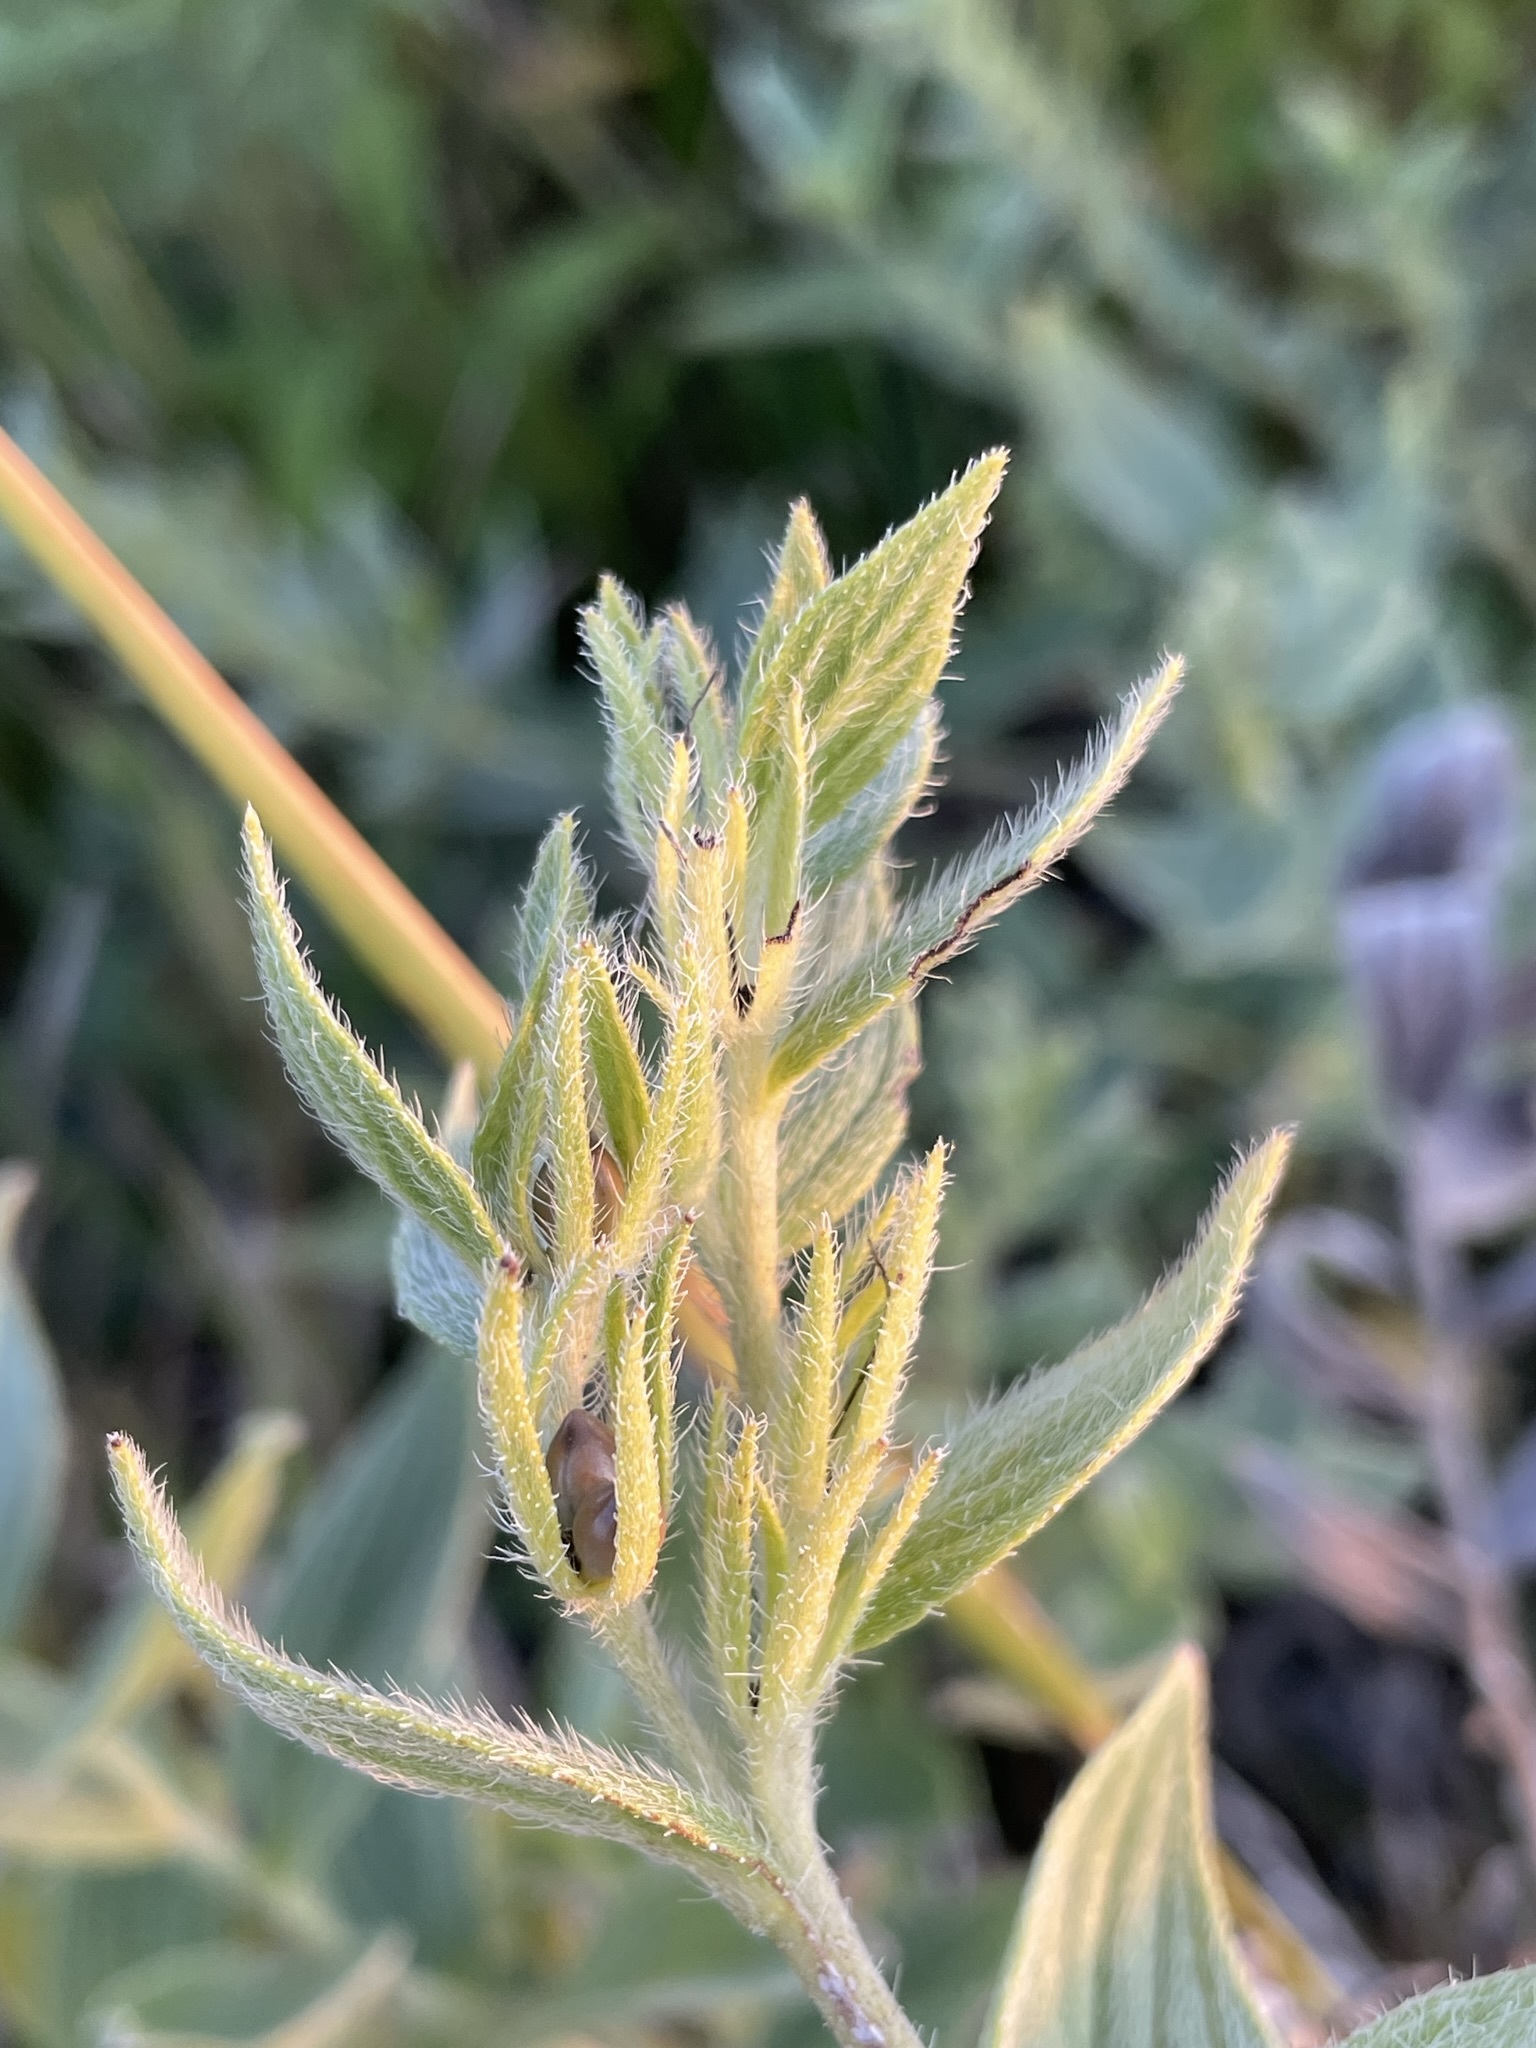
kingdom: Plantae
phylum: Tracheophyta
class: Magnoliopsida
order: Boraginales
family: Boraginaceae
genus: Lithospermum
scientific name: Lithospermum occidentale
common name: Western false gromwell
